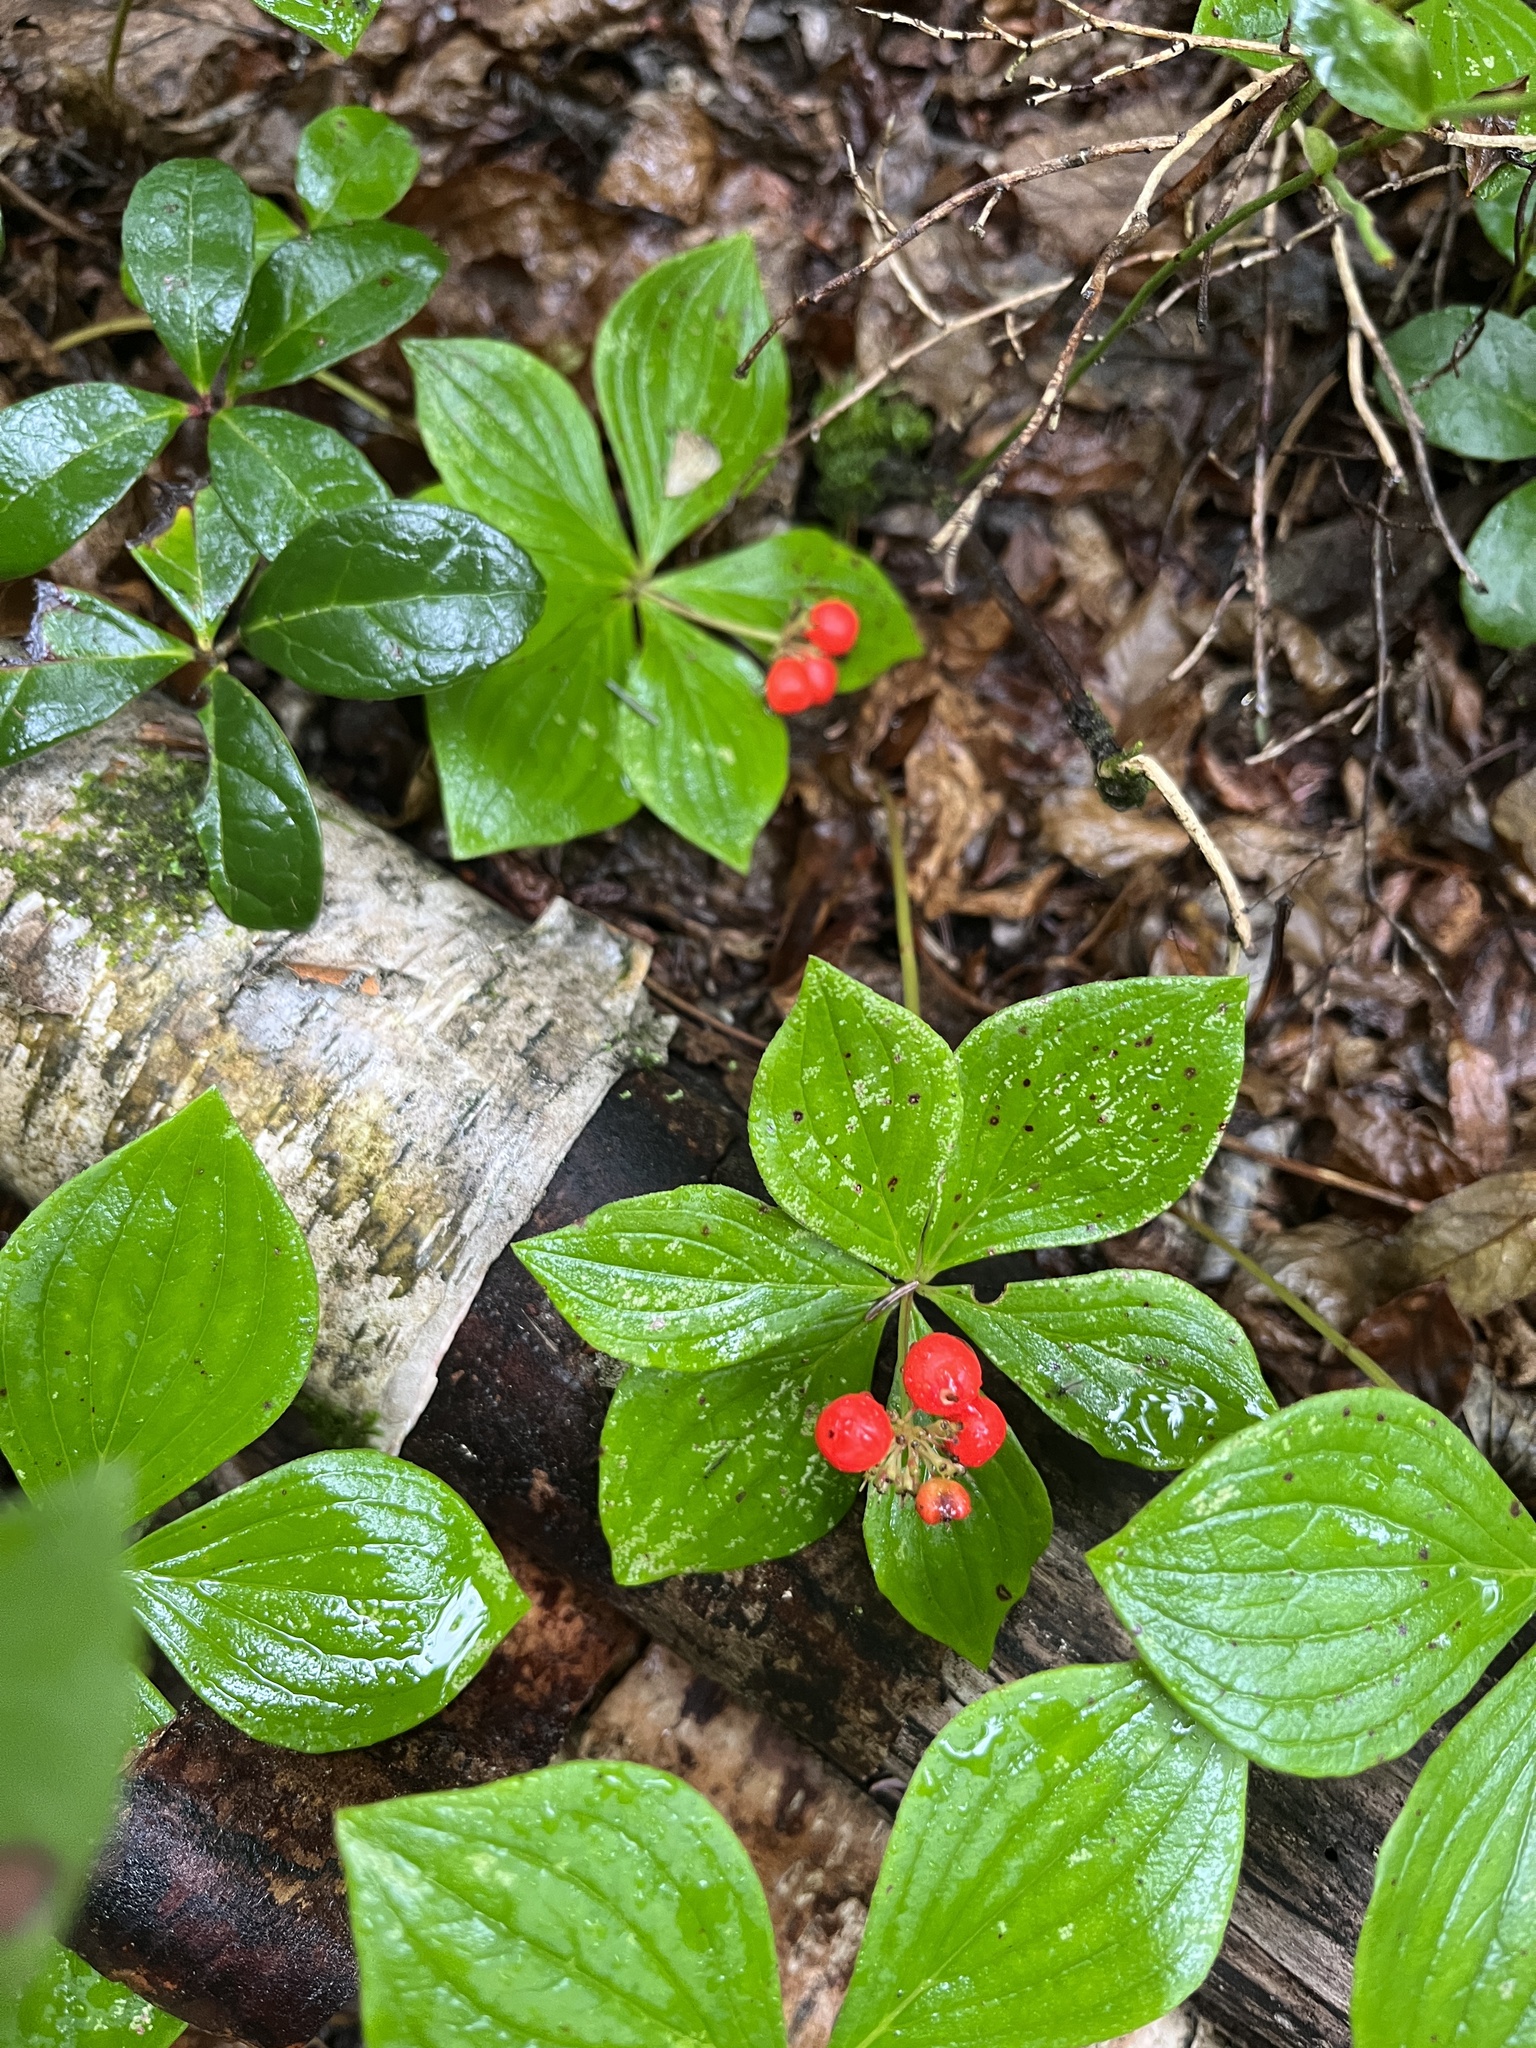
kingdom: Plantae
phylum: Tracheophyta
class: Magnoliopsida
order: Cornales
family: Cornaceae
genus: Cornus
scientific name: Cornus canadensis
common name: Creeping dogwood
